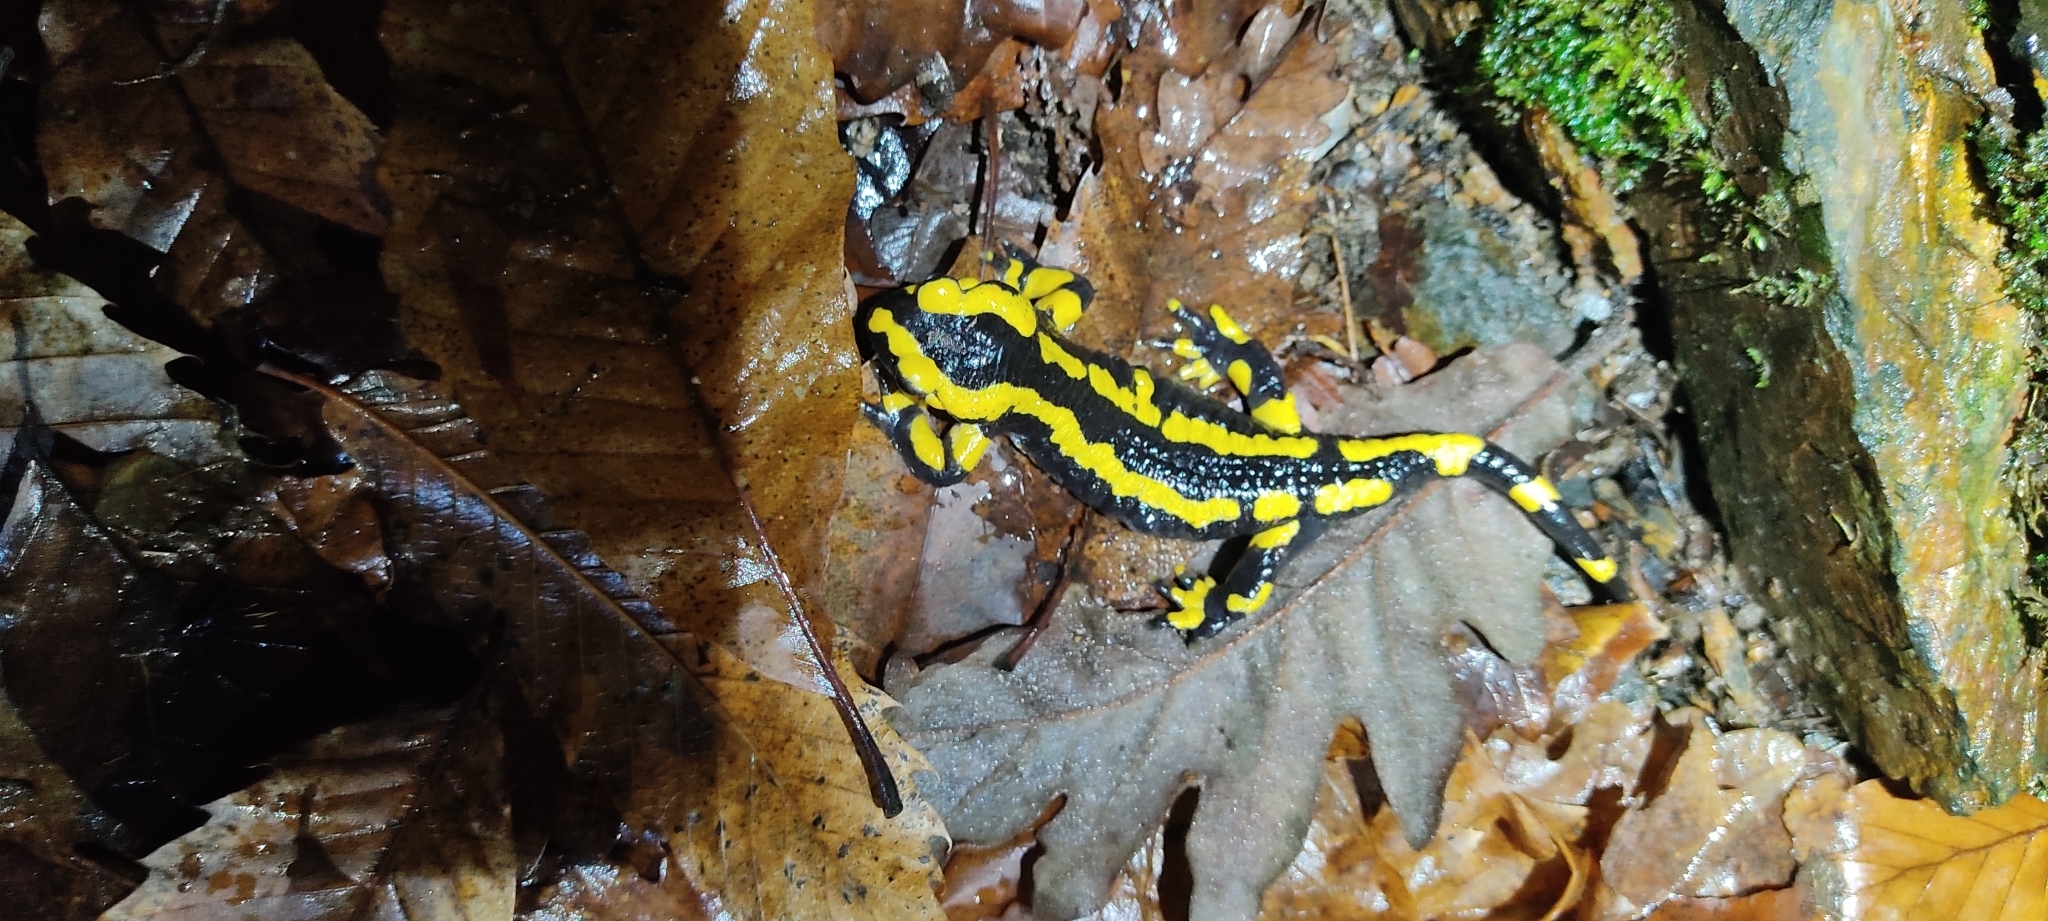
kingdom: Animalia
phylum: Chordata
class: Amphibia
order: Caudata
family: Salamandridae
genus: Salamandra
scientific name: Salamandra salamandra
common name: Fire salamander
